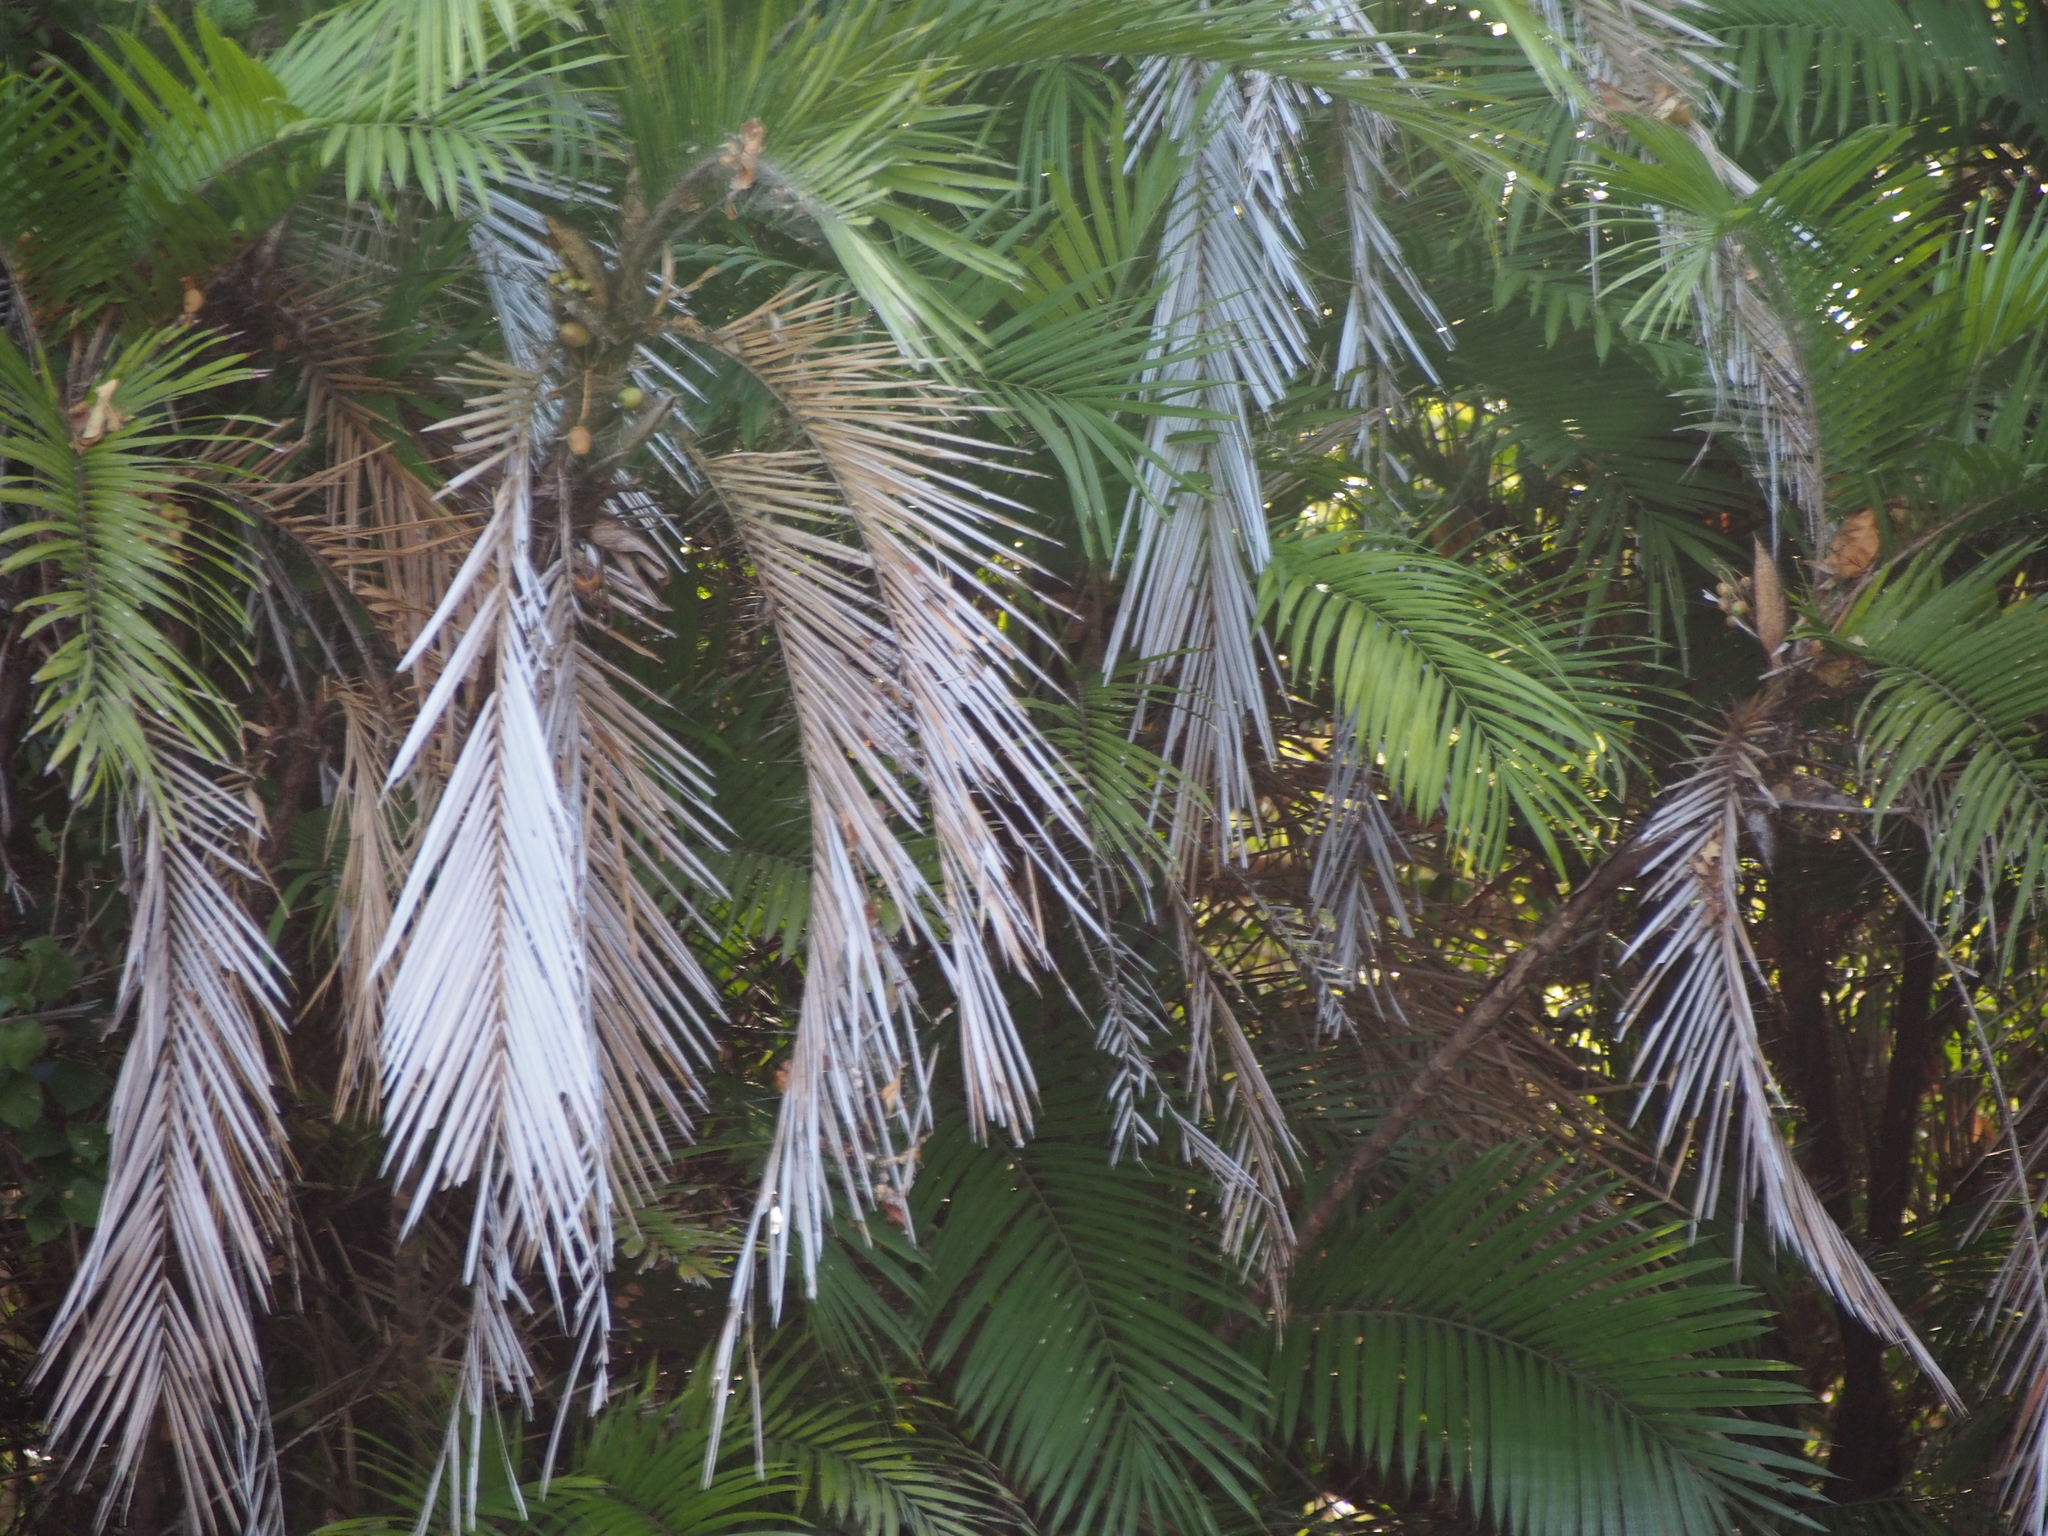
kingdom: Plantae
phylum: Tracheophyta
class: Liliopsida
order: Arecales
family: Arecaceae
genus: Bactris
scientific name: Bactris major
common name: Beach palm
